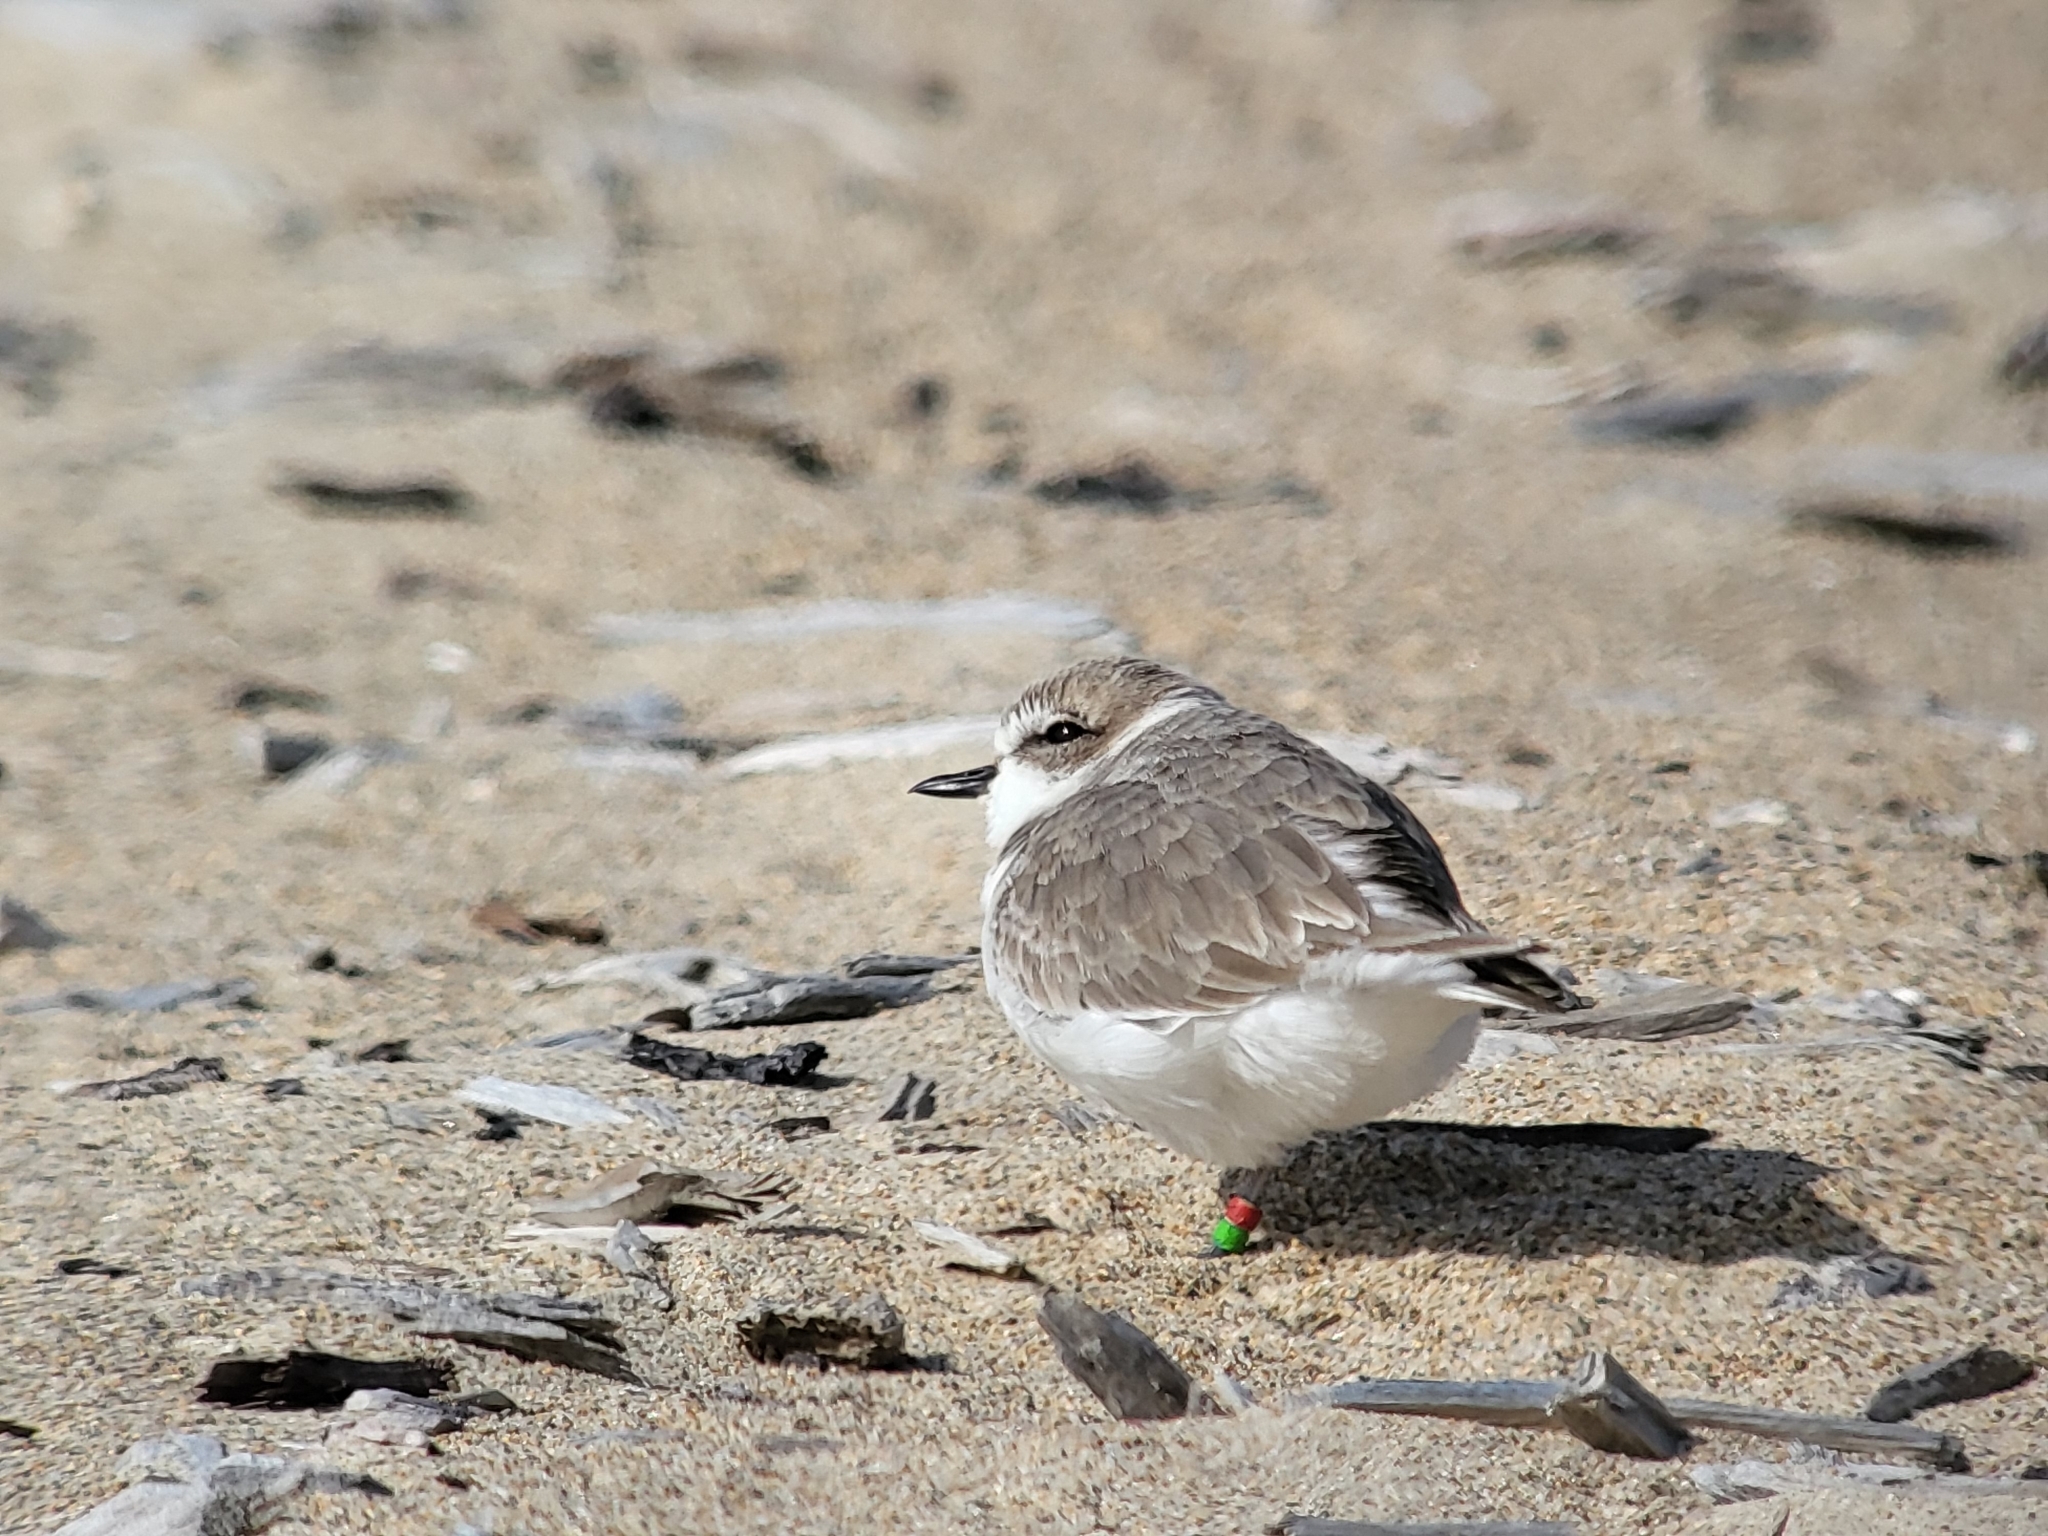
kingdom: Animalia
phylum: Chordata
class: Aves
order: Charadriiformes
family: Charadriidae
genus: Anarhynchus
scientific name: Anarhynchus
